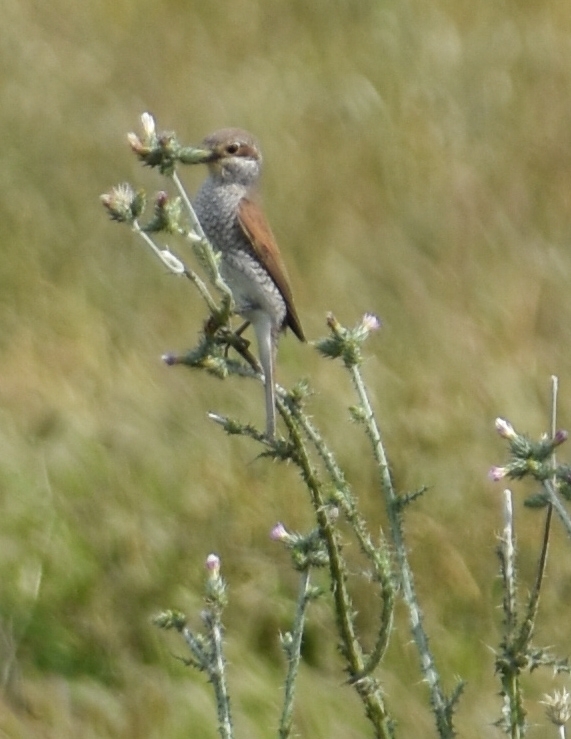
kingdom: Animalia
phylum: Chordata
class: Aves
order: Passeriformes
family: Laniidae
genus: Lanius
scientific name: Lanius collurio
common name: Red-backed shrike
